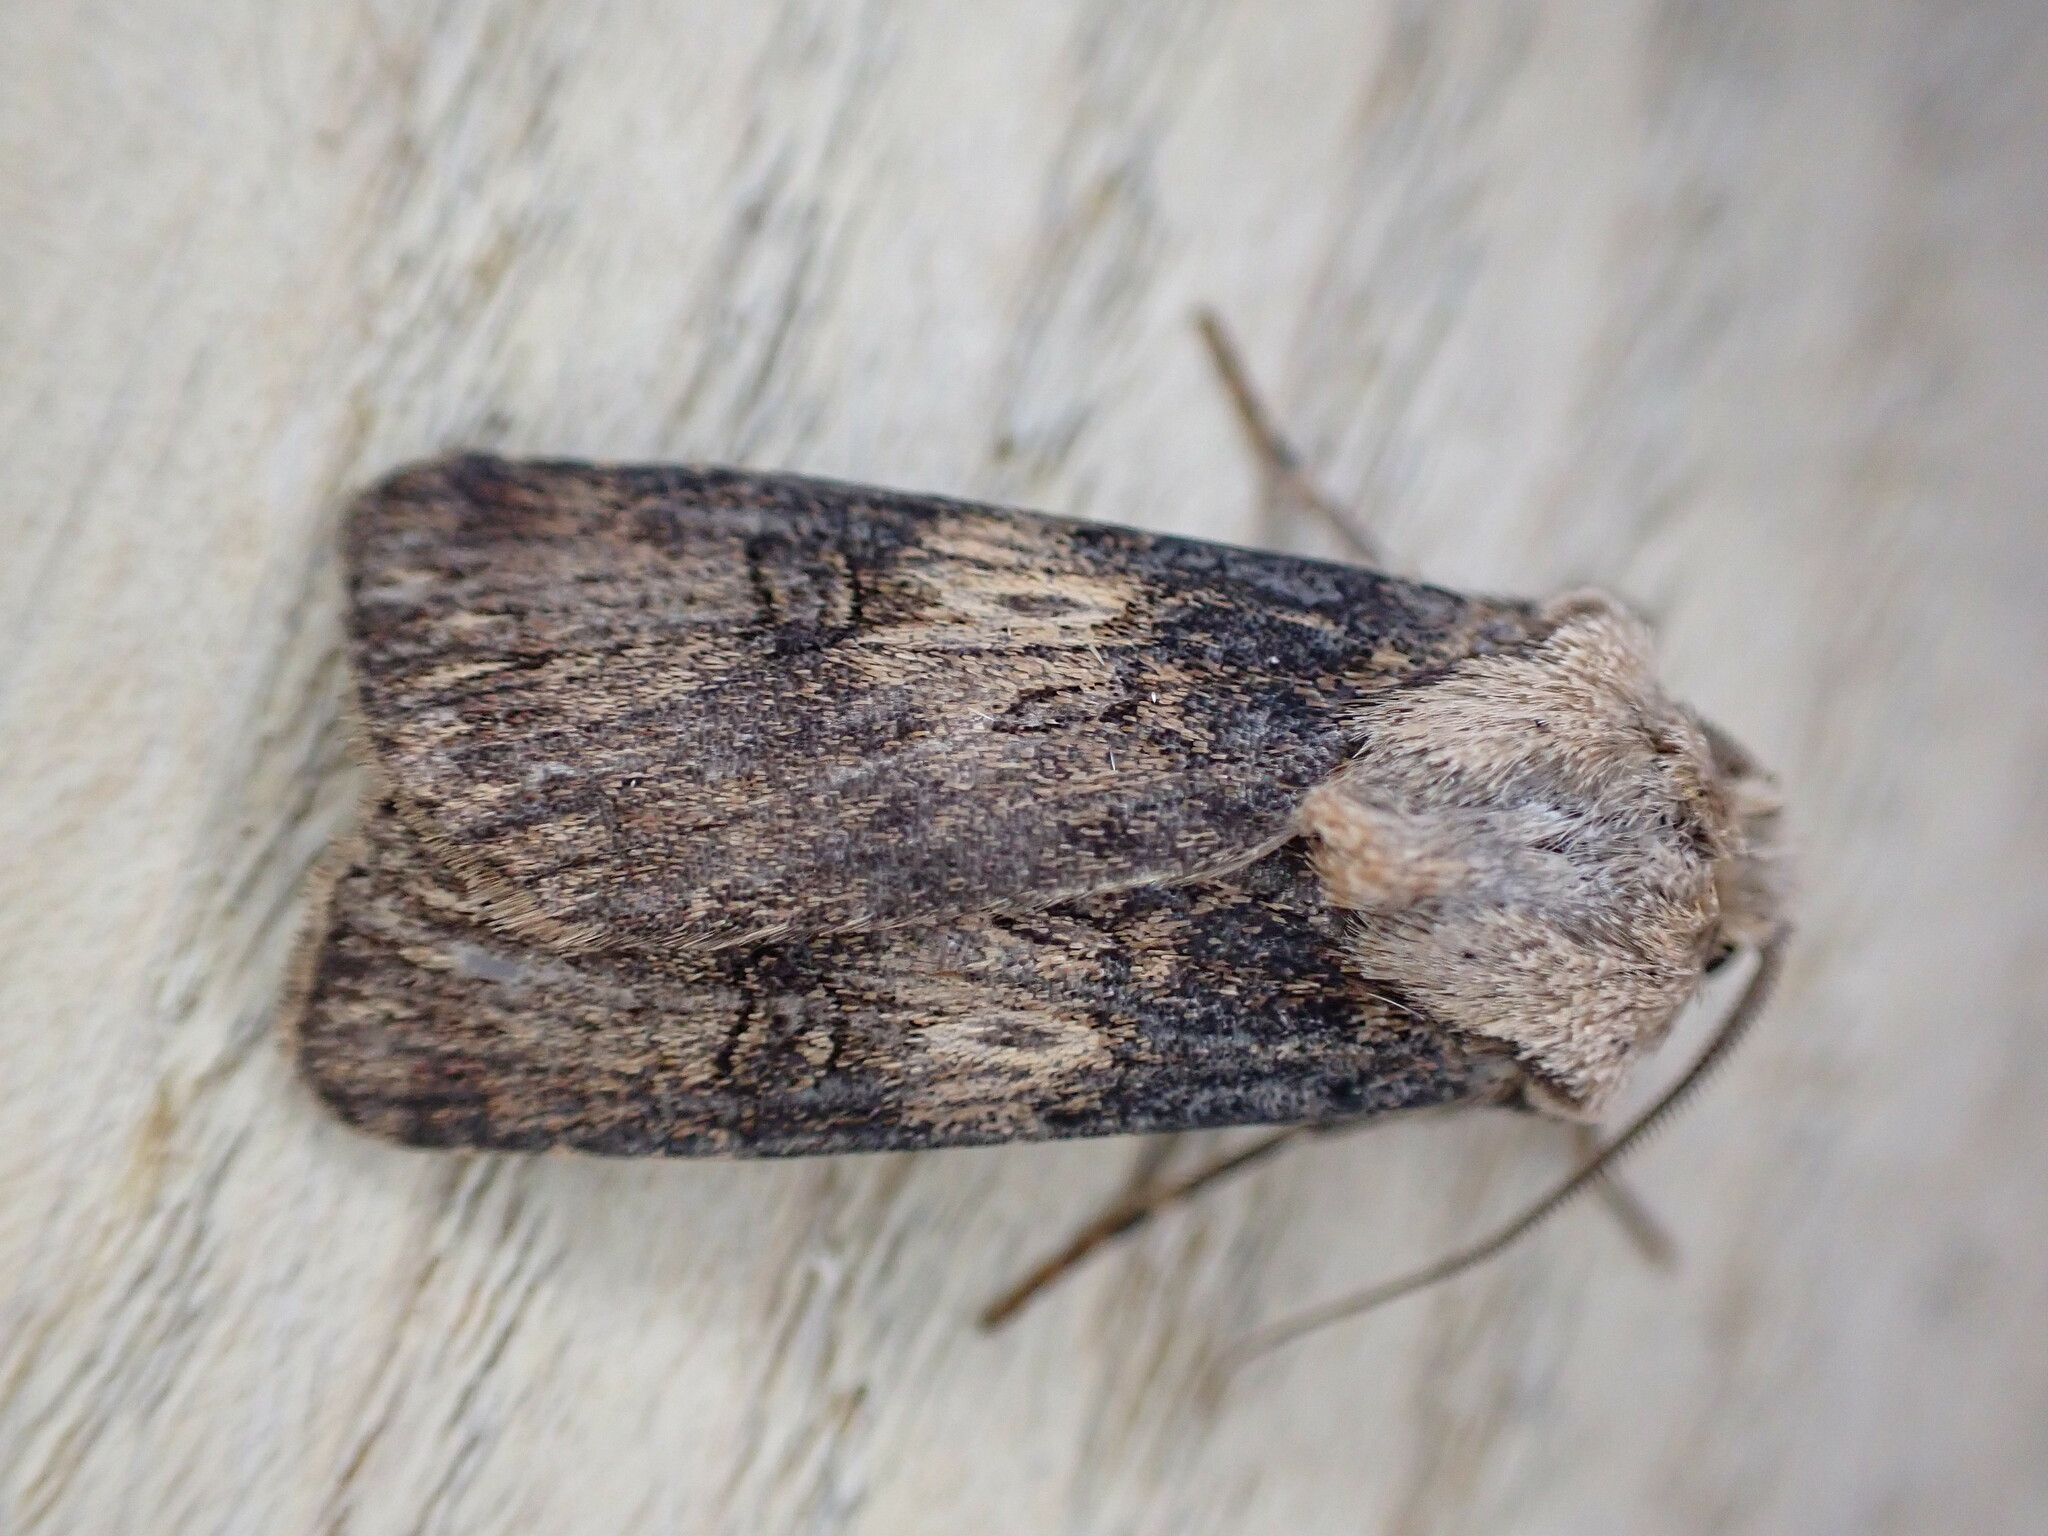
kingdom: Animalia
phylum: Arthropoda
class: Insecta
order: Lepidoptera
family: Noctuidae
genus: Agrotis
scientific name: Agrotis puta
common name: Shuttle-shaped dart
